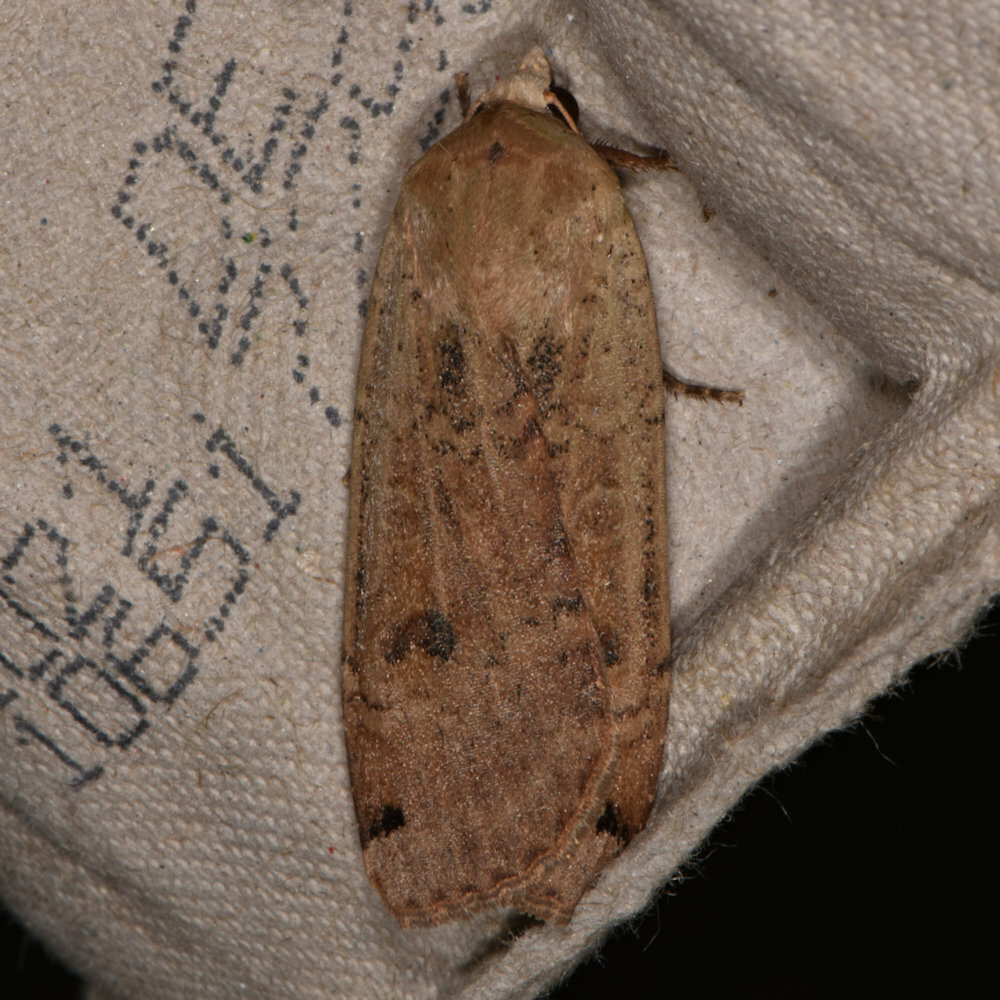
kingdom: Animalia
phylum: Arthropoda
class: Insecta
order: Lepidoptera
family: Noctuidae
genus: Noctua
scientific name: Noctua pronuba
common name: Large yellow underwing
